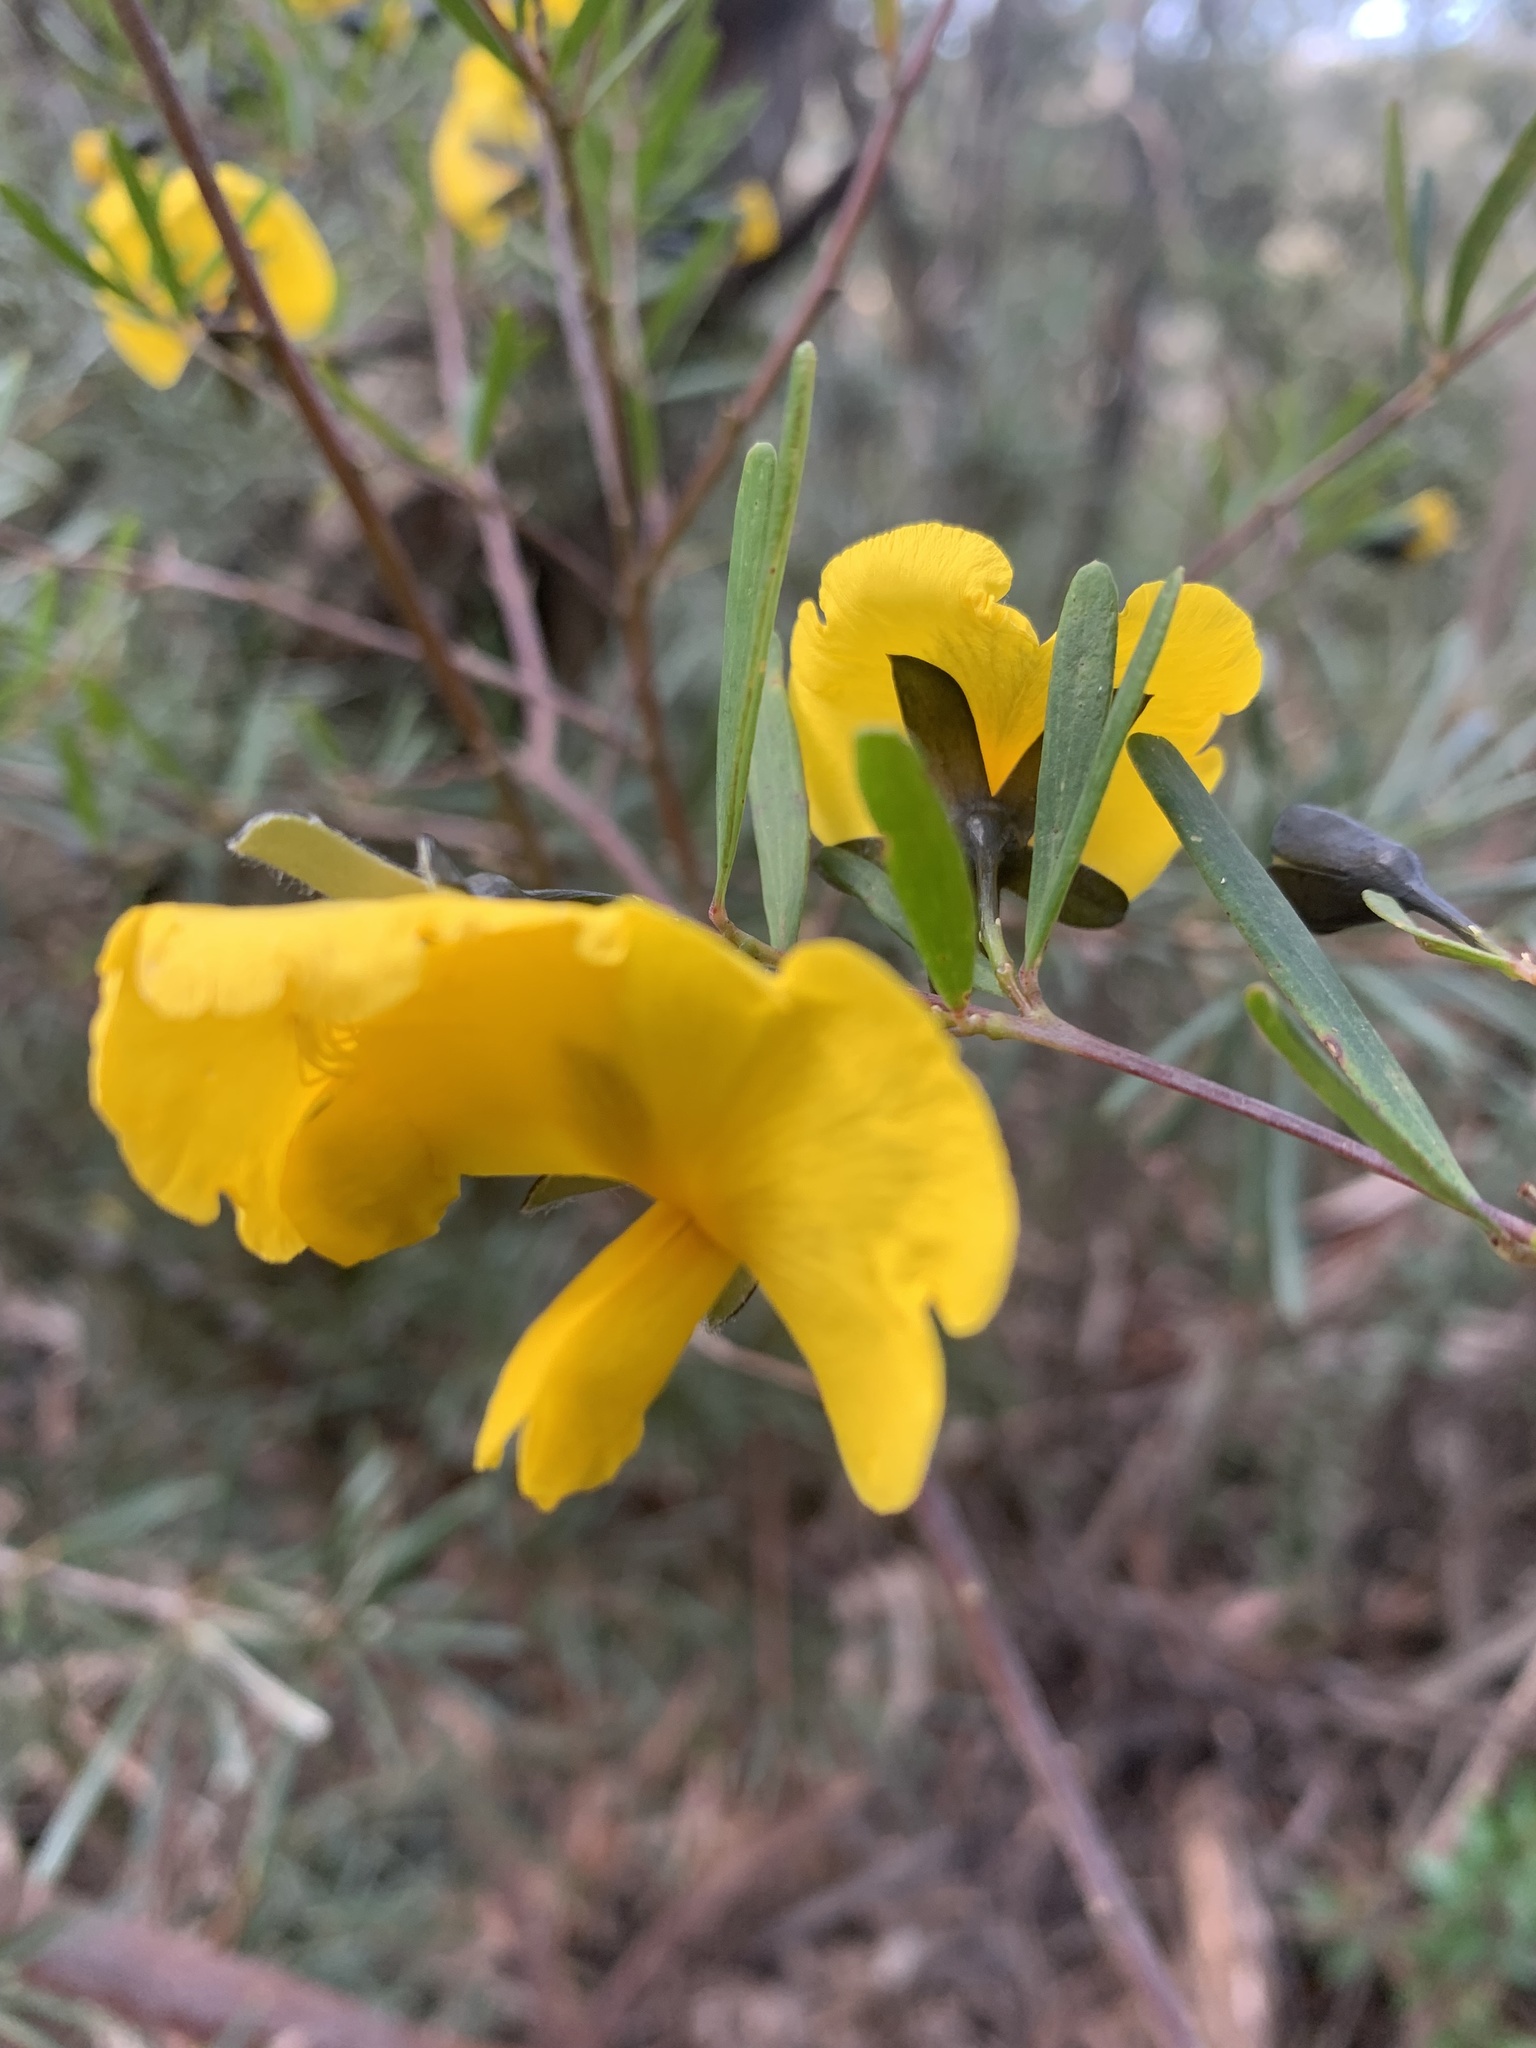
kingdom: Plantae
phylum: Tracheophyta
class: Magnoliopsida
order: Fabales
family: Fabaceae
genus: Gompholobium
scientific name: Gompholobium latifolium
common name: Broadleaf wedge-pea
